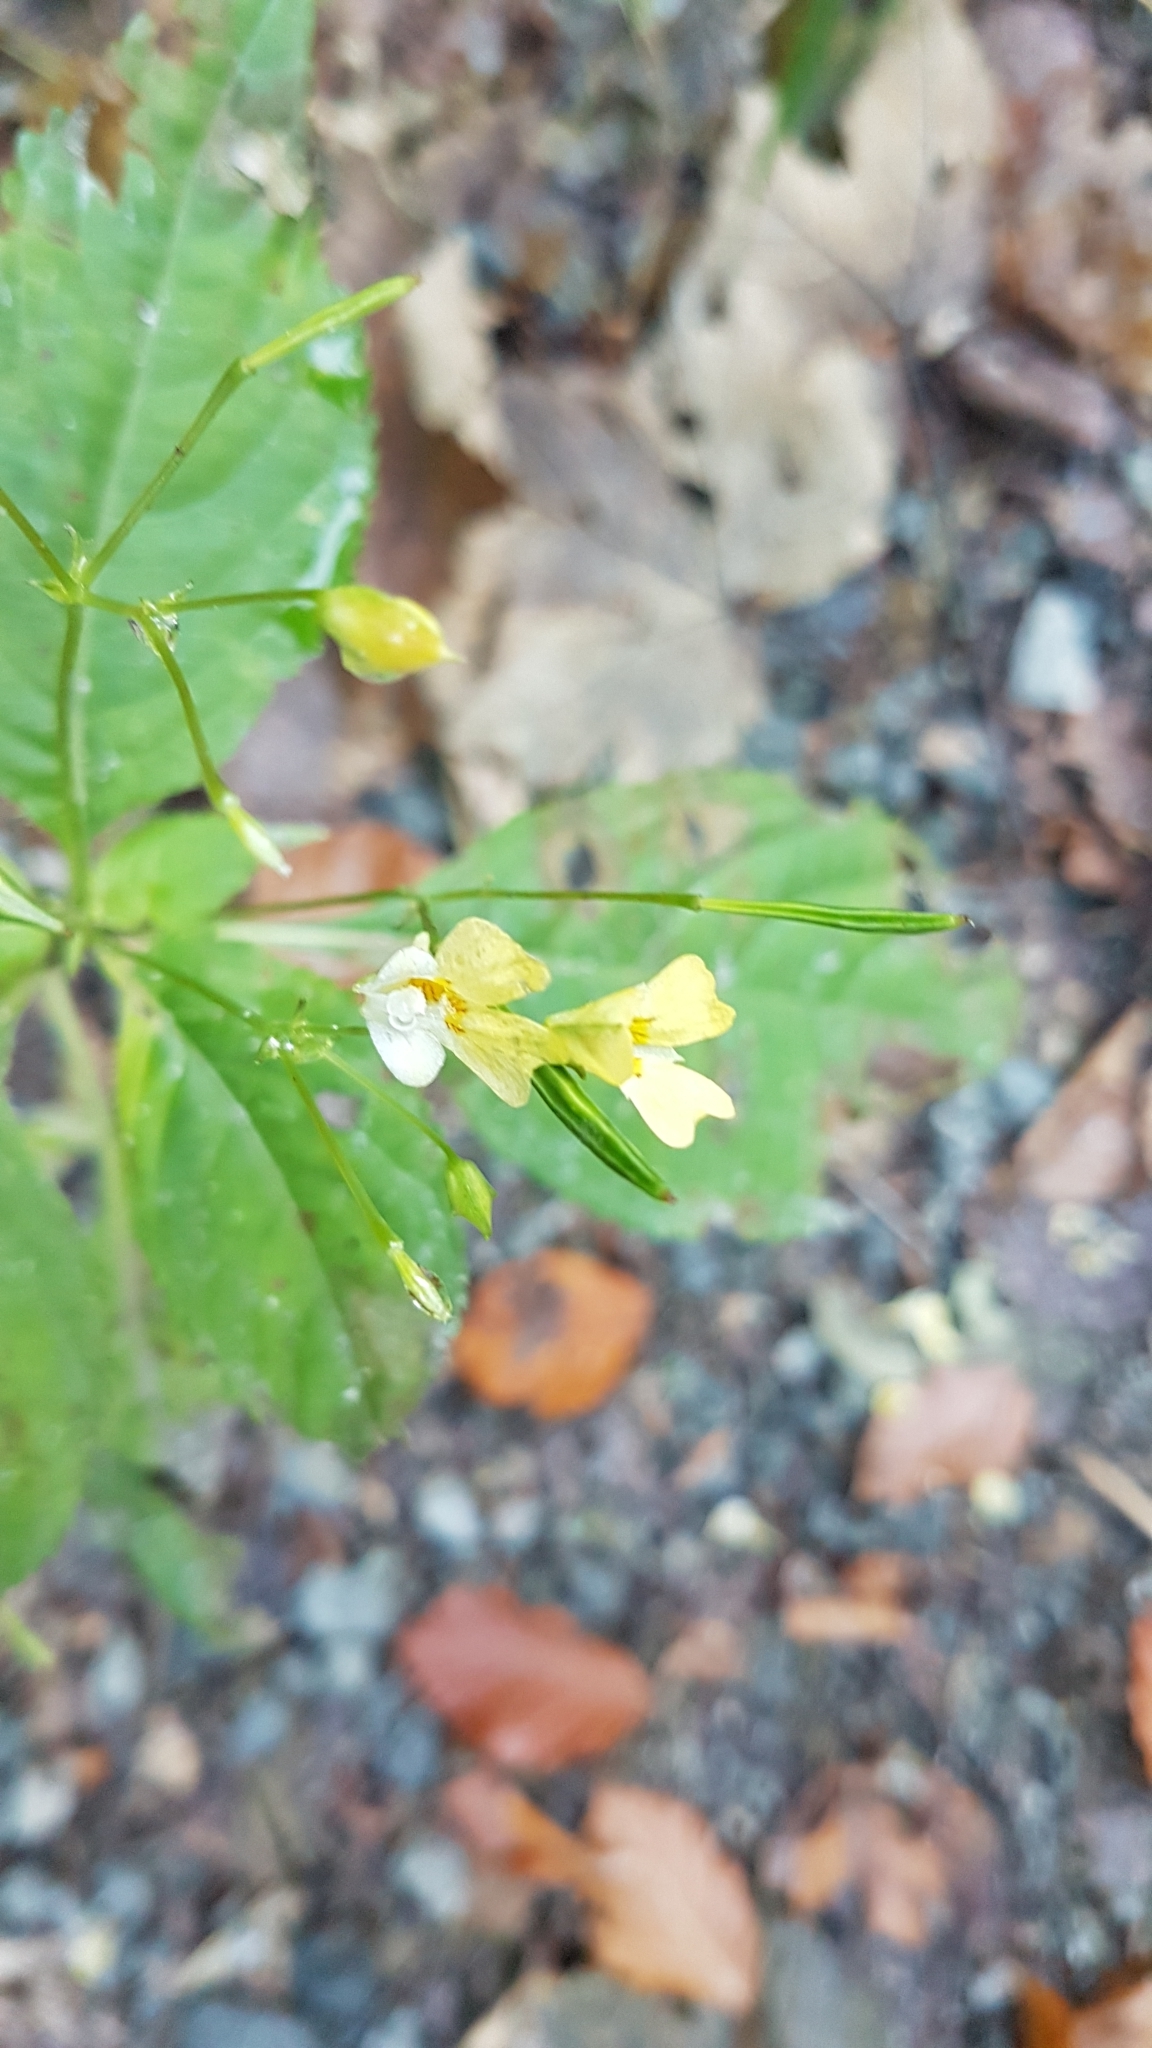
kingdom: Plantae
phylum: Tracheophyta
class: Magnoliopsida
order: Ericales
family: Balsaminaceae
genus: Impatiens
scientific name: Impatiens parviflora
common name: Small balsam
